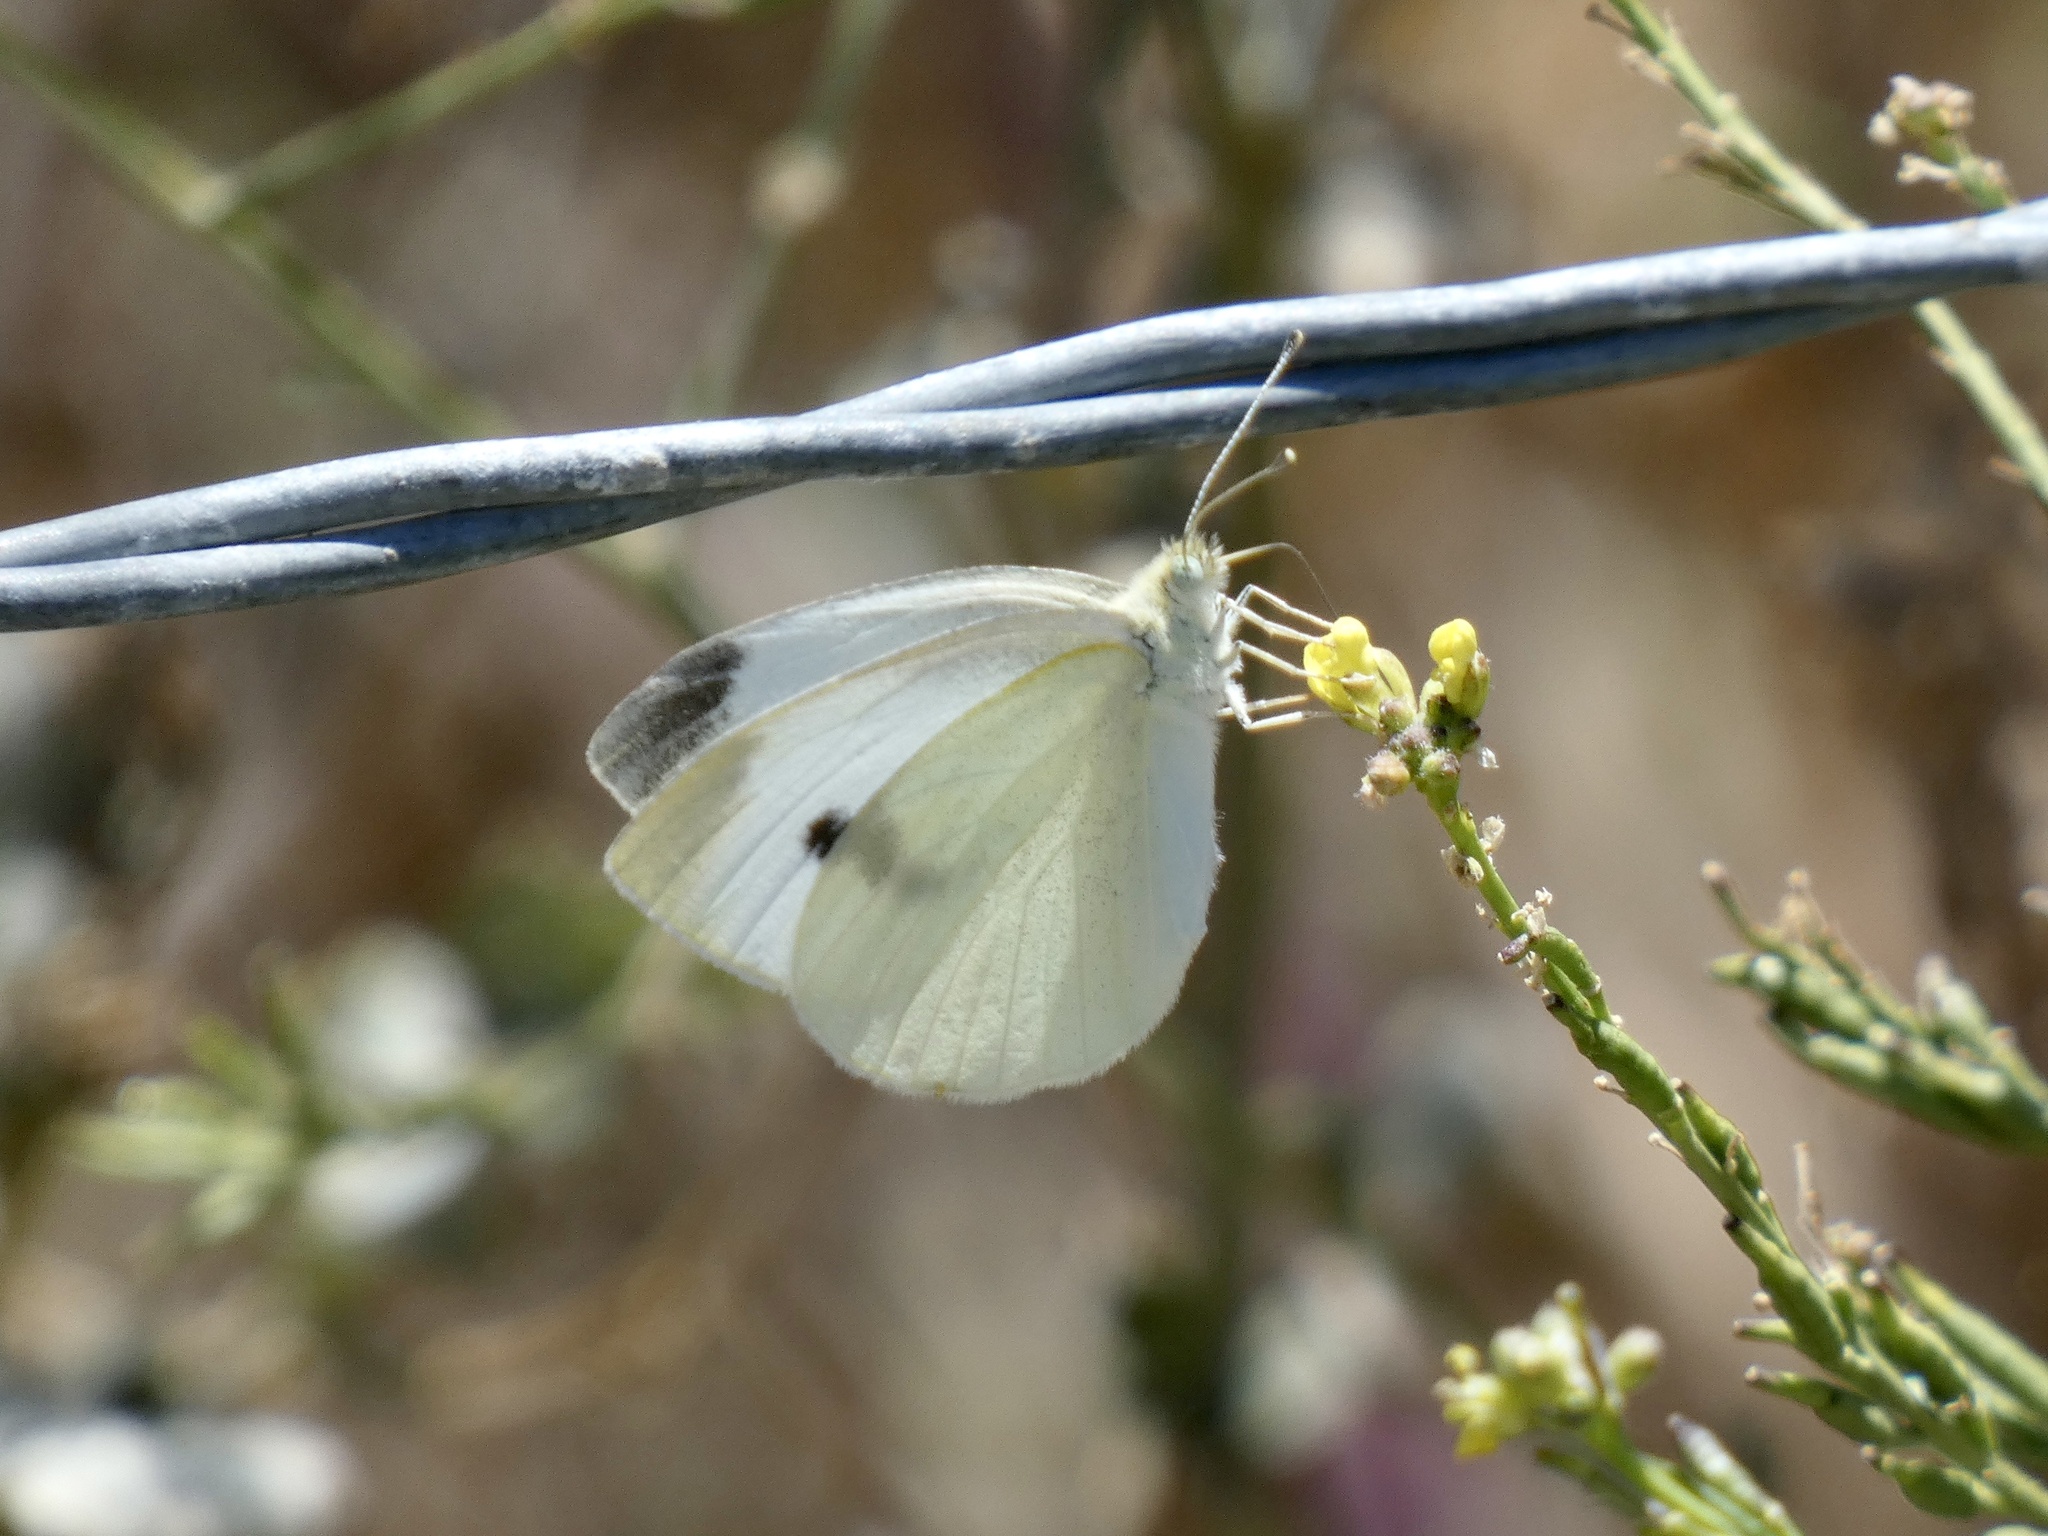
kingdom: Animalia
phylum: Arthropoda
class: Insecta
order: Lepidoptera
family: Pieridae
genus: Pieris
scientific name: Pieris rapae
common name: Small white
